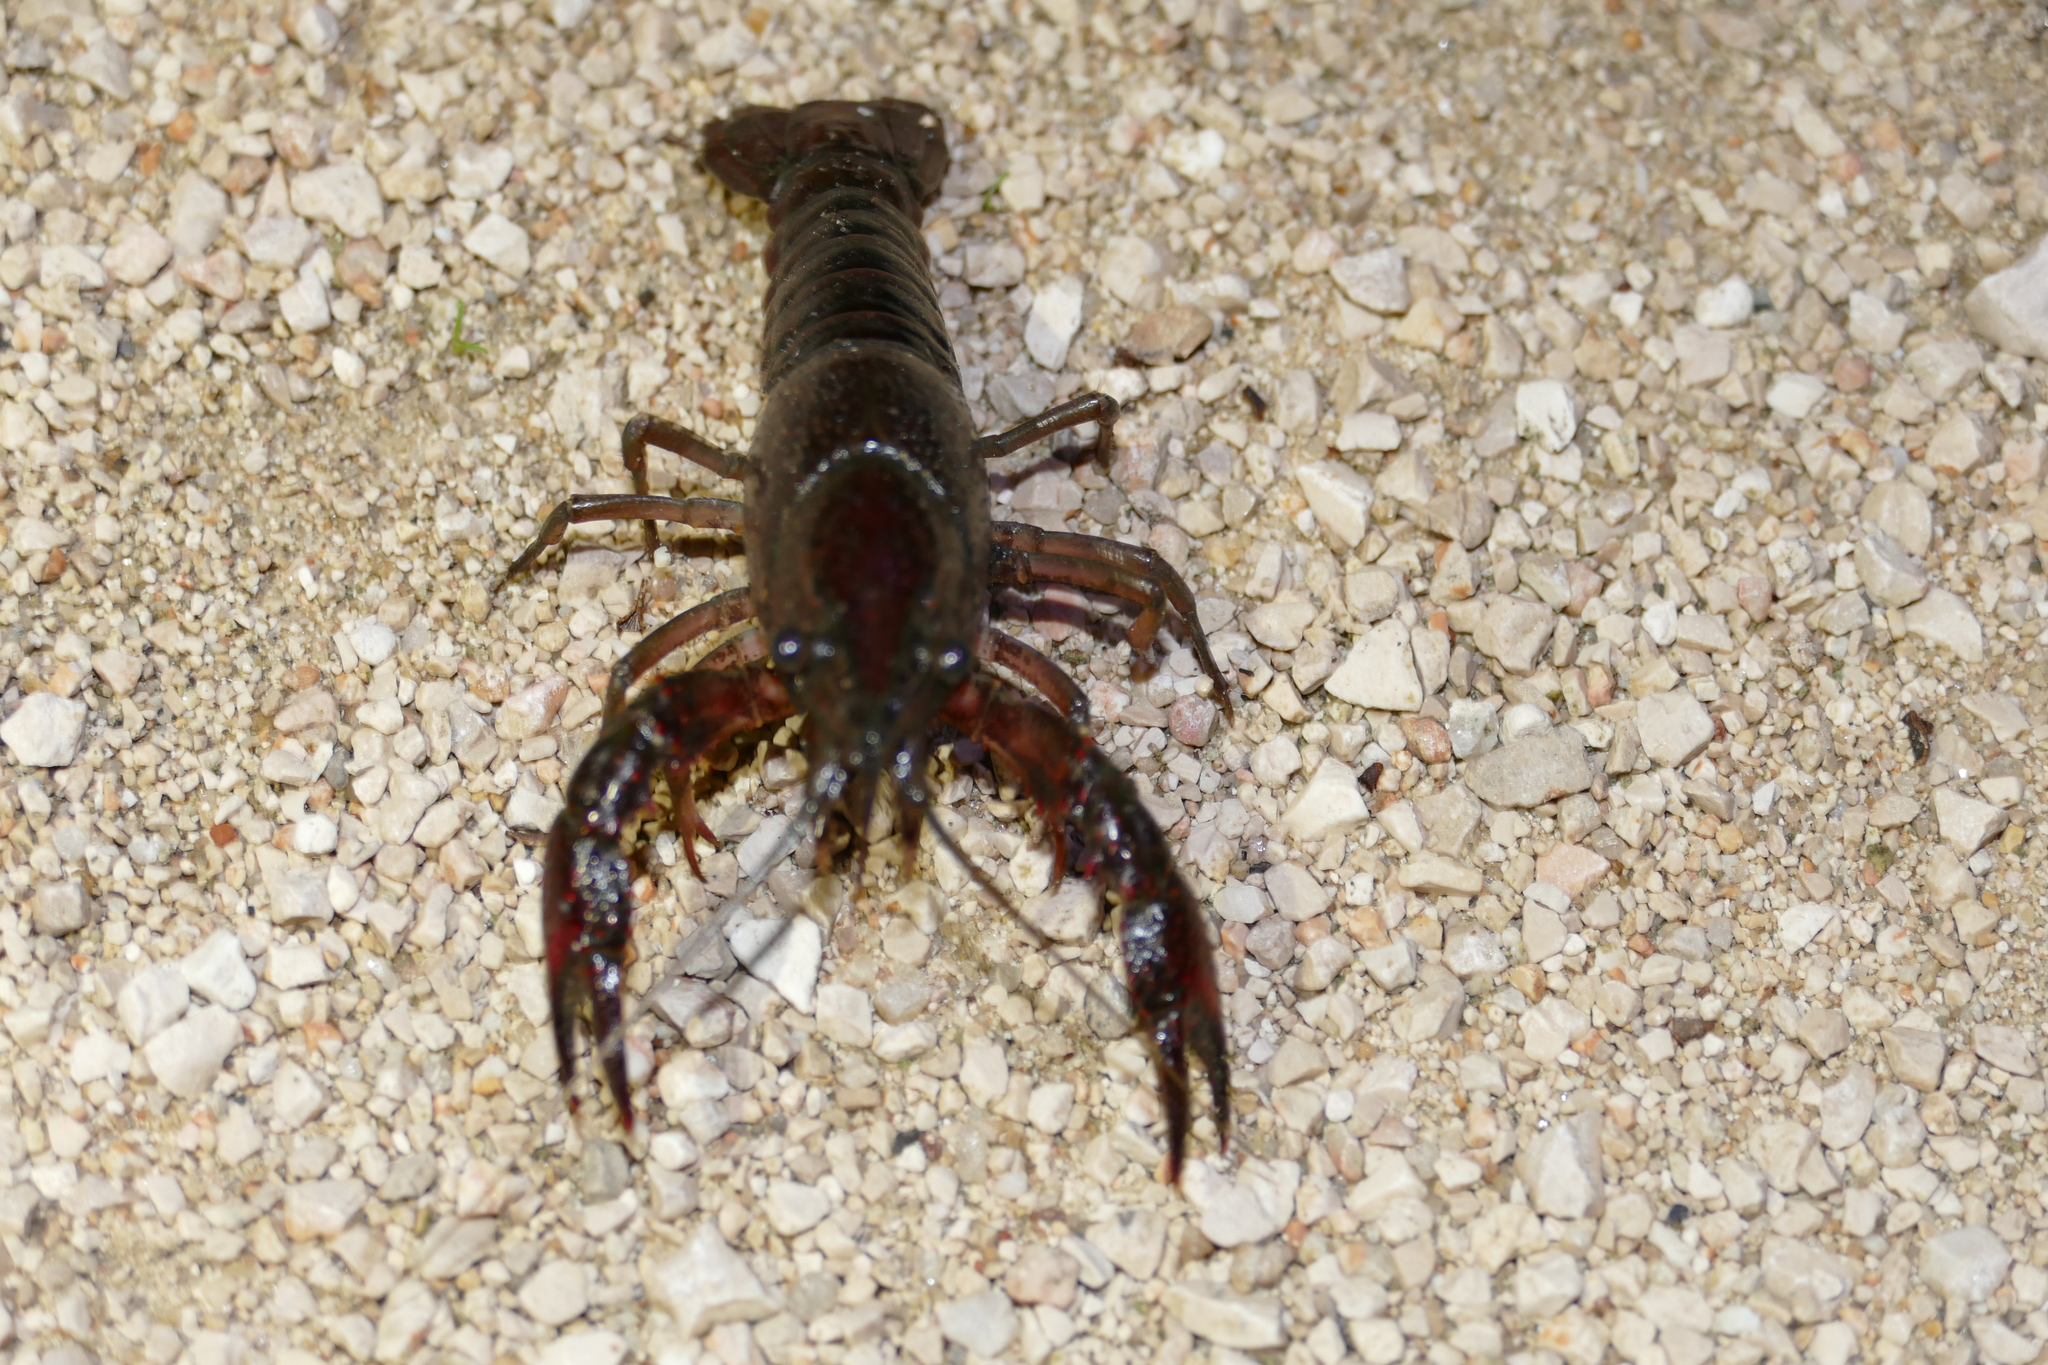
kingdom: Animalia
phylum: Arthropoda
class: Malacostraca
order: Decapoda
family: Cambaridae
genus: Procambarus
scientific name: Procambarus clarkii
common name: Red swamp crayfish
